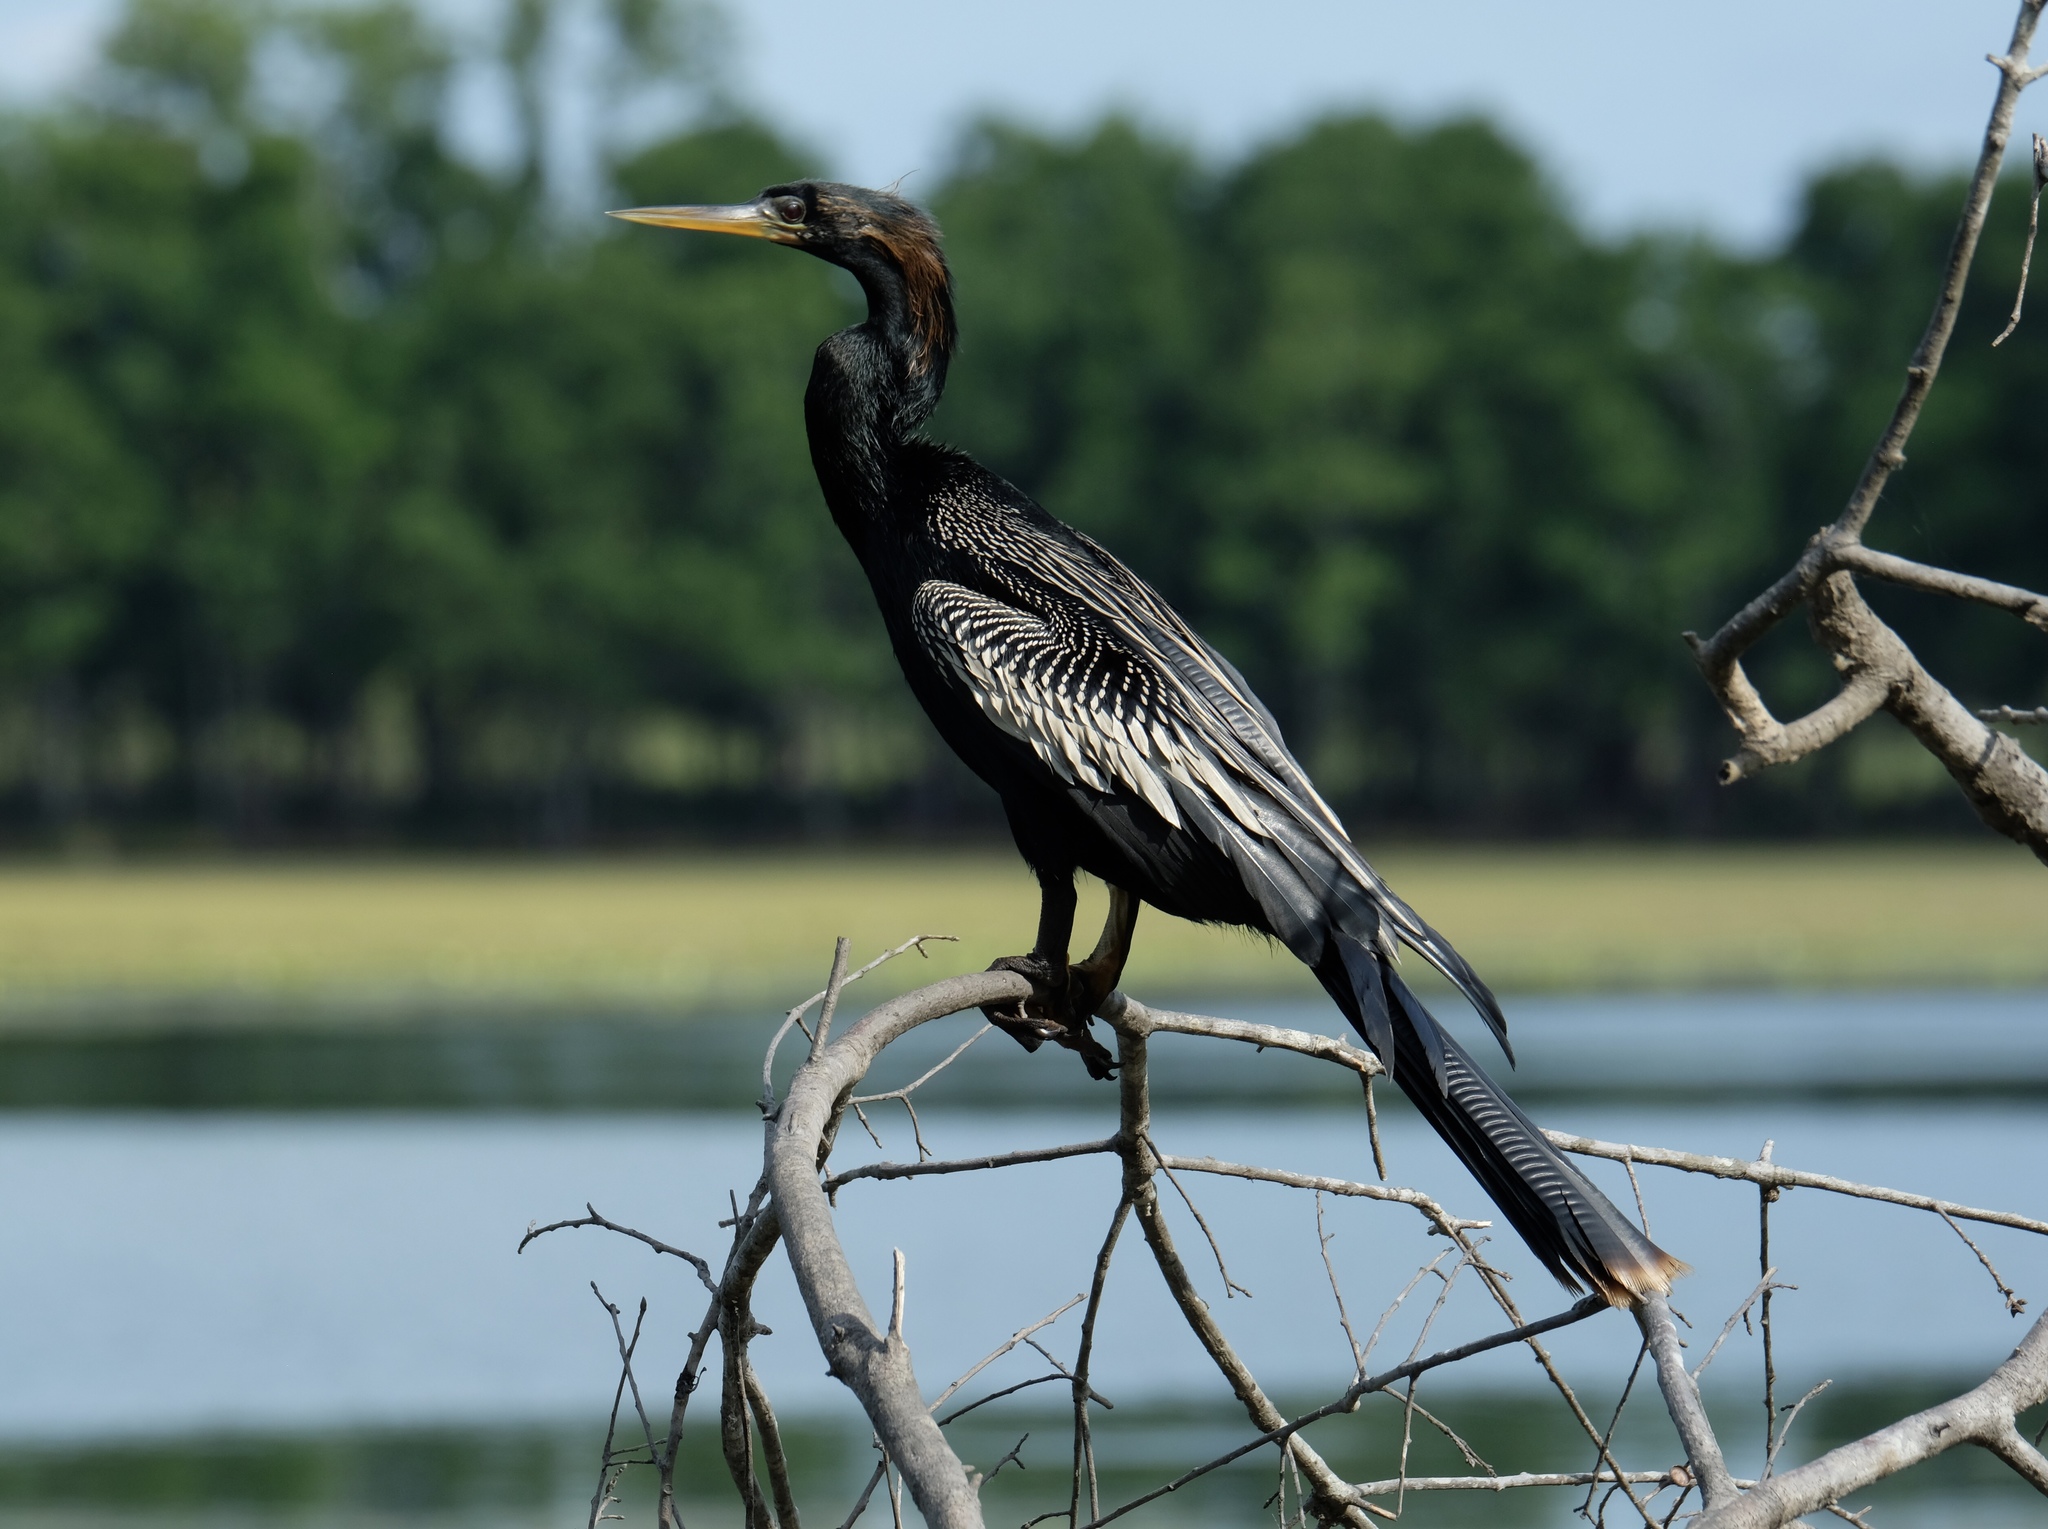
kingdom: Animalia
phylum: Chordata
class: Aves
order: Suliformes
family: Anhingidae
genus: Anhinga
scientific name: Anhinga anhinga
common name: Anhinga
